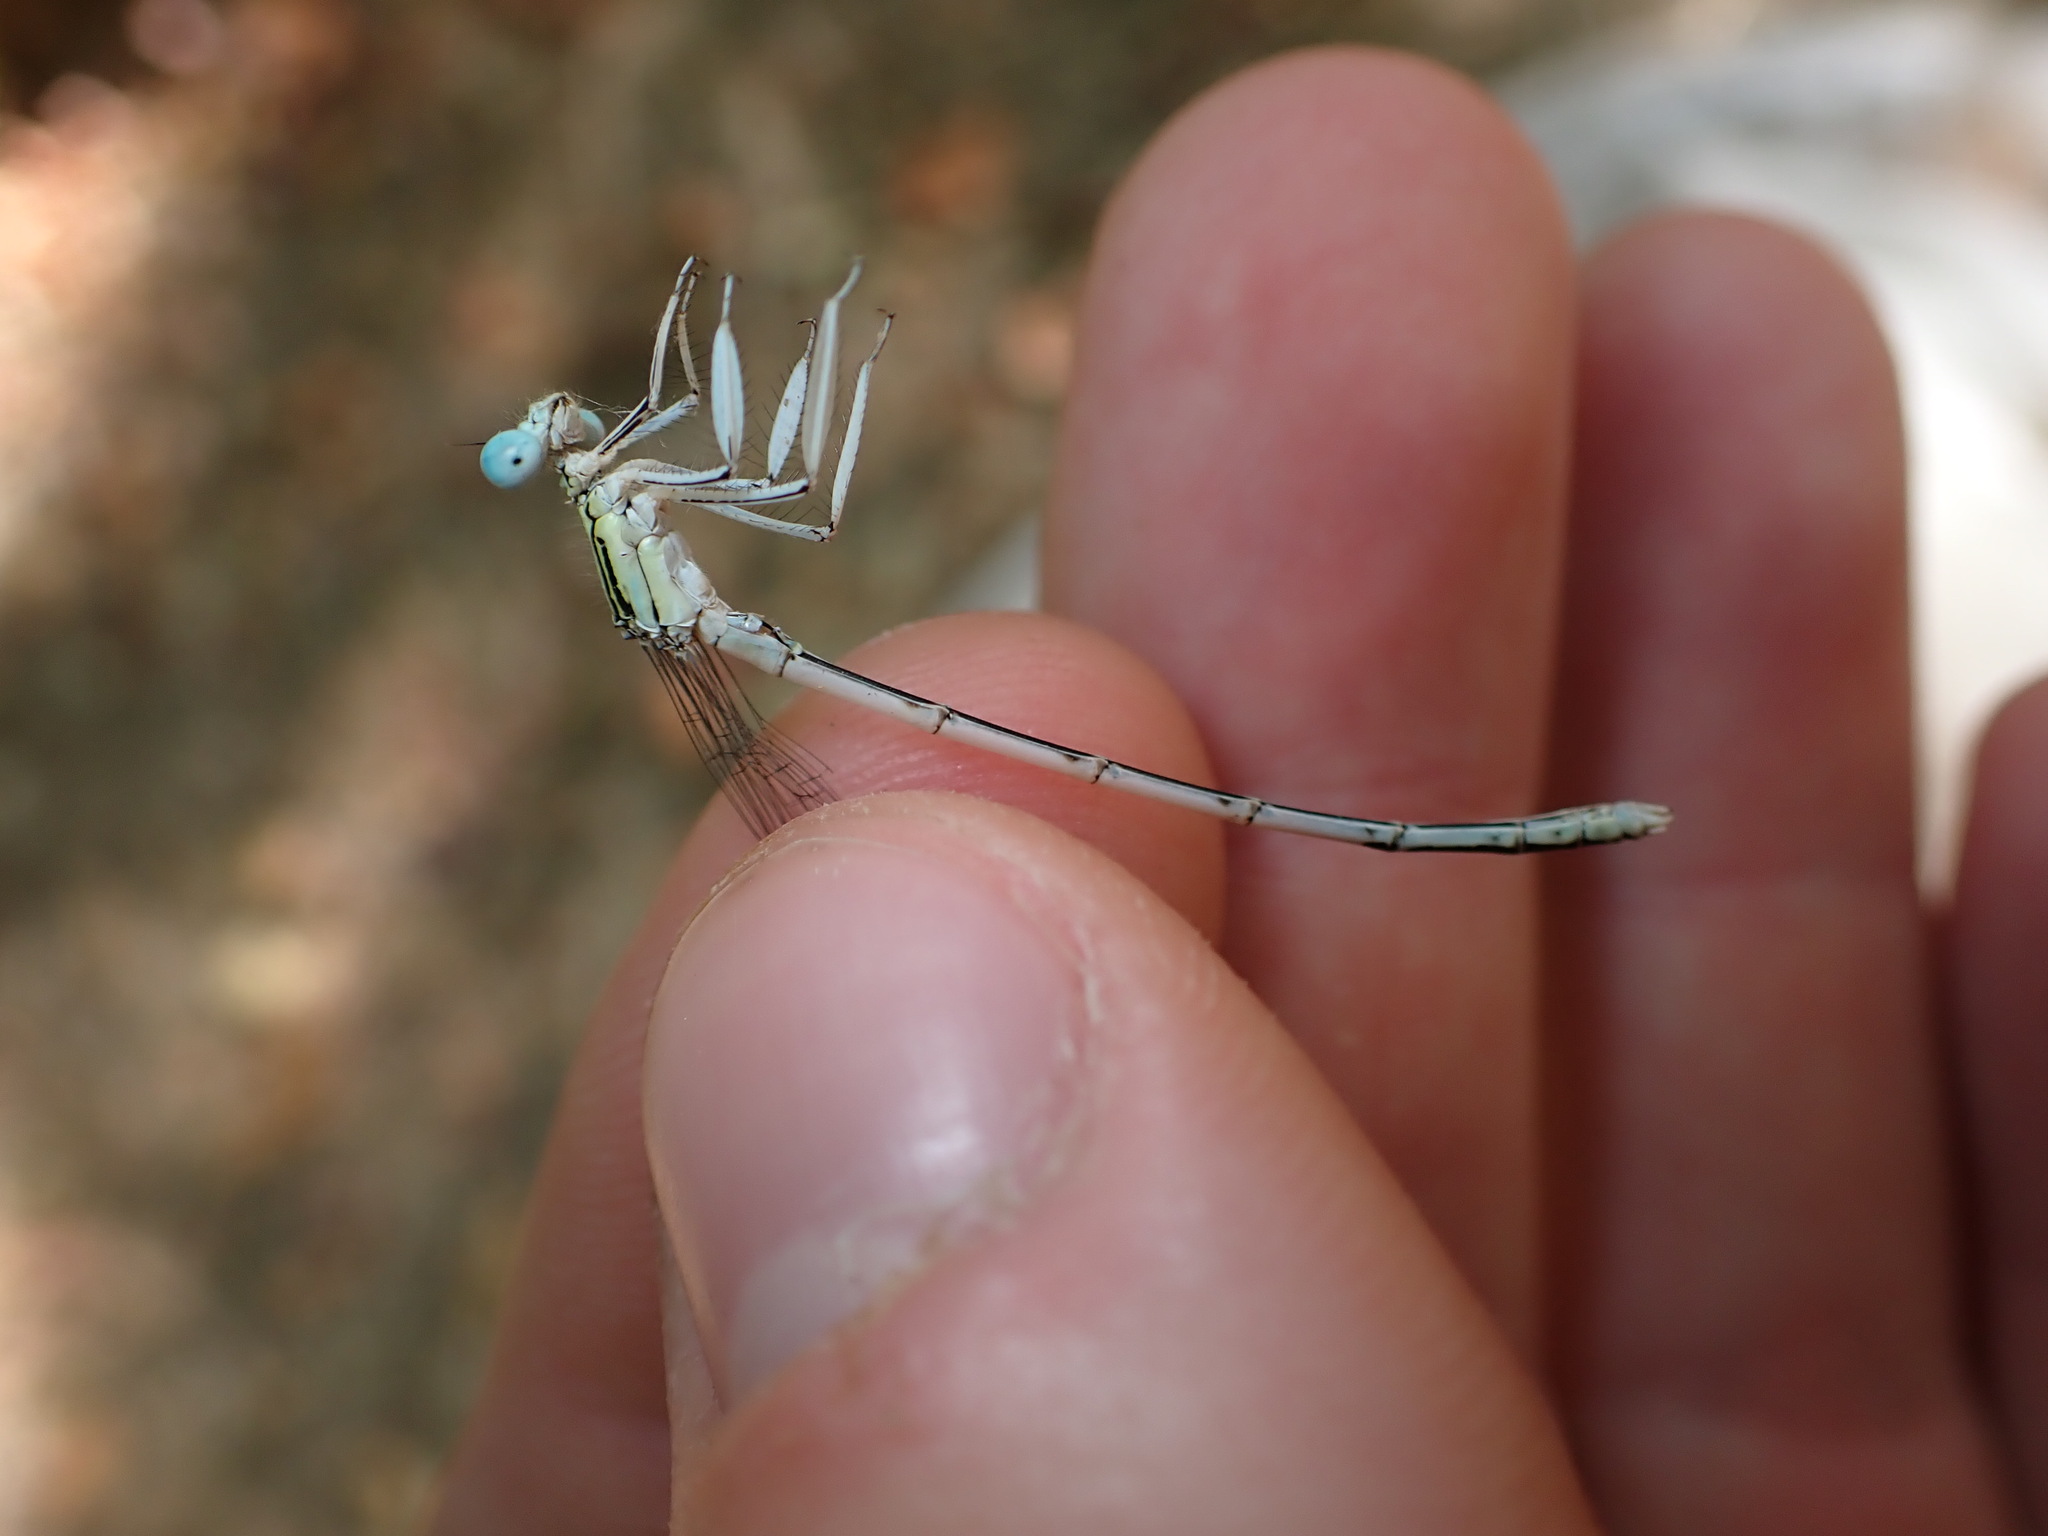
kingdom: Animalia
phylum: Arthropoda
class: Insecta
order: Odonata
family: Platycnemididae
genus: Platycnemis
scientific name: Platycnemis latipes
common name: White featherleg
